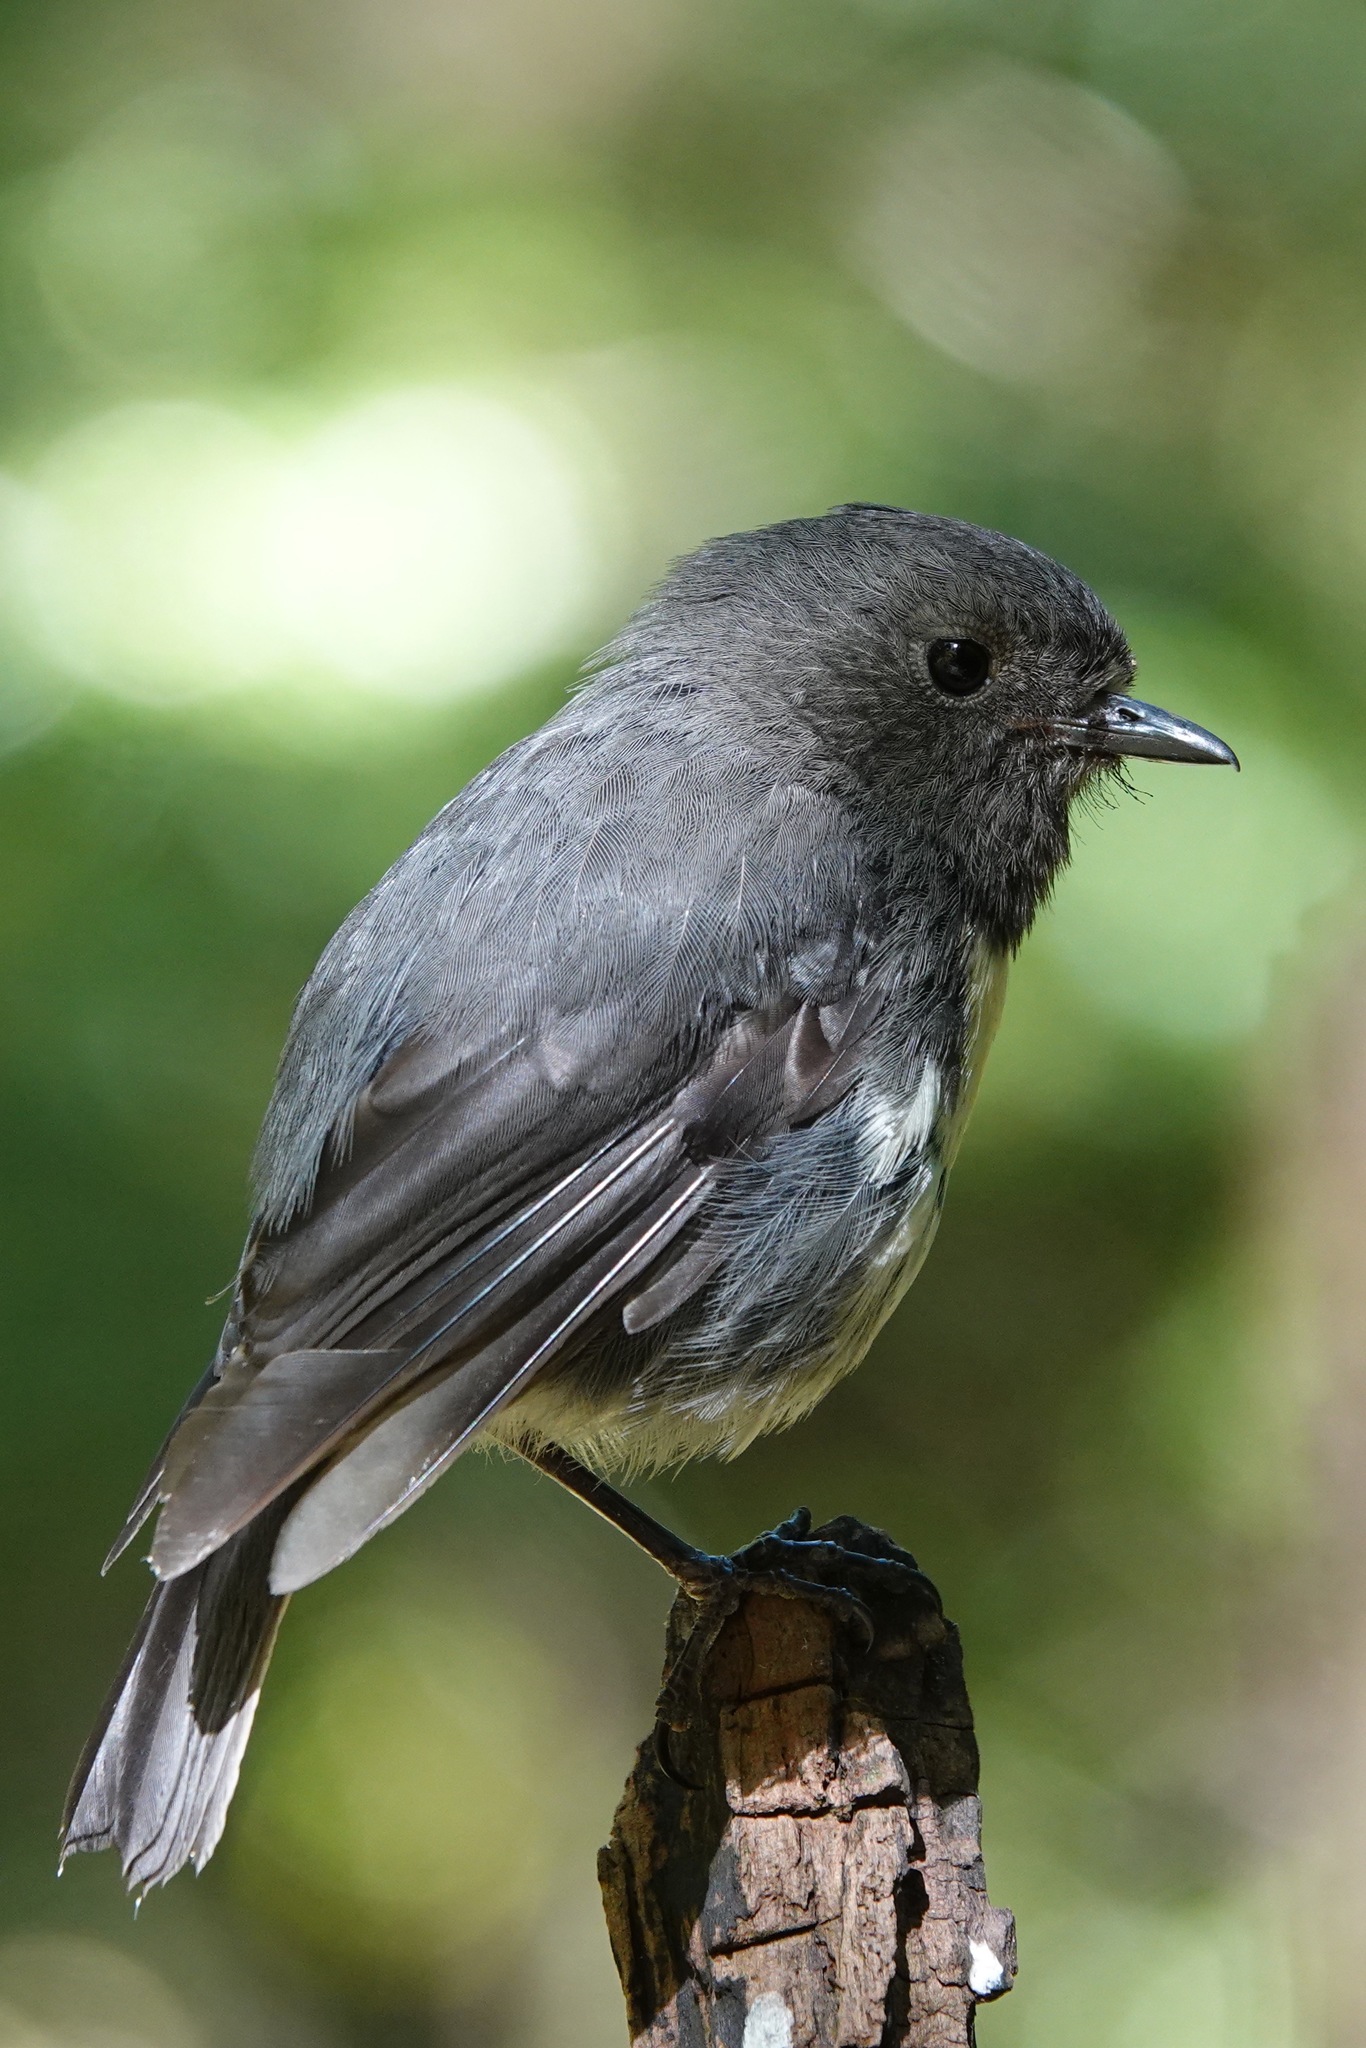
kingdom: Animalia
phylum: Chordata
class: Aves
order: Passeriformes
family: Petroicidae
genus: Petroica
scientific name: Petroica australis
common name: New zealand robin
